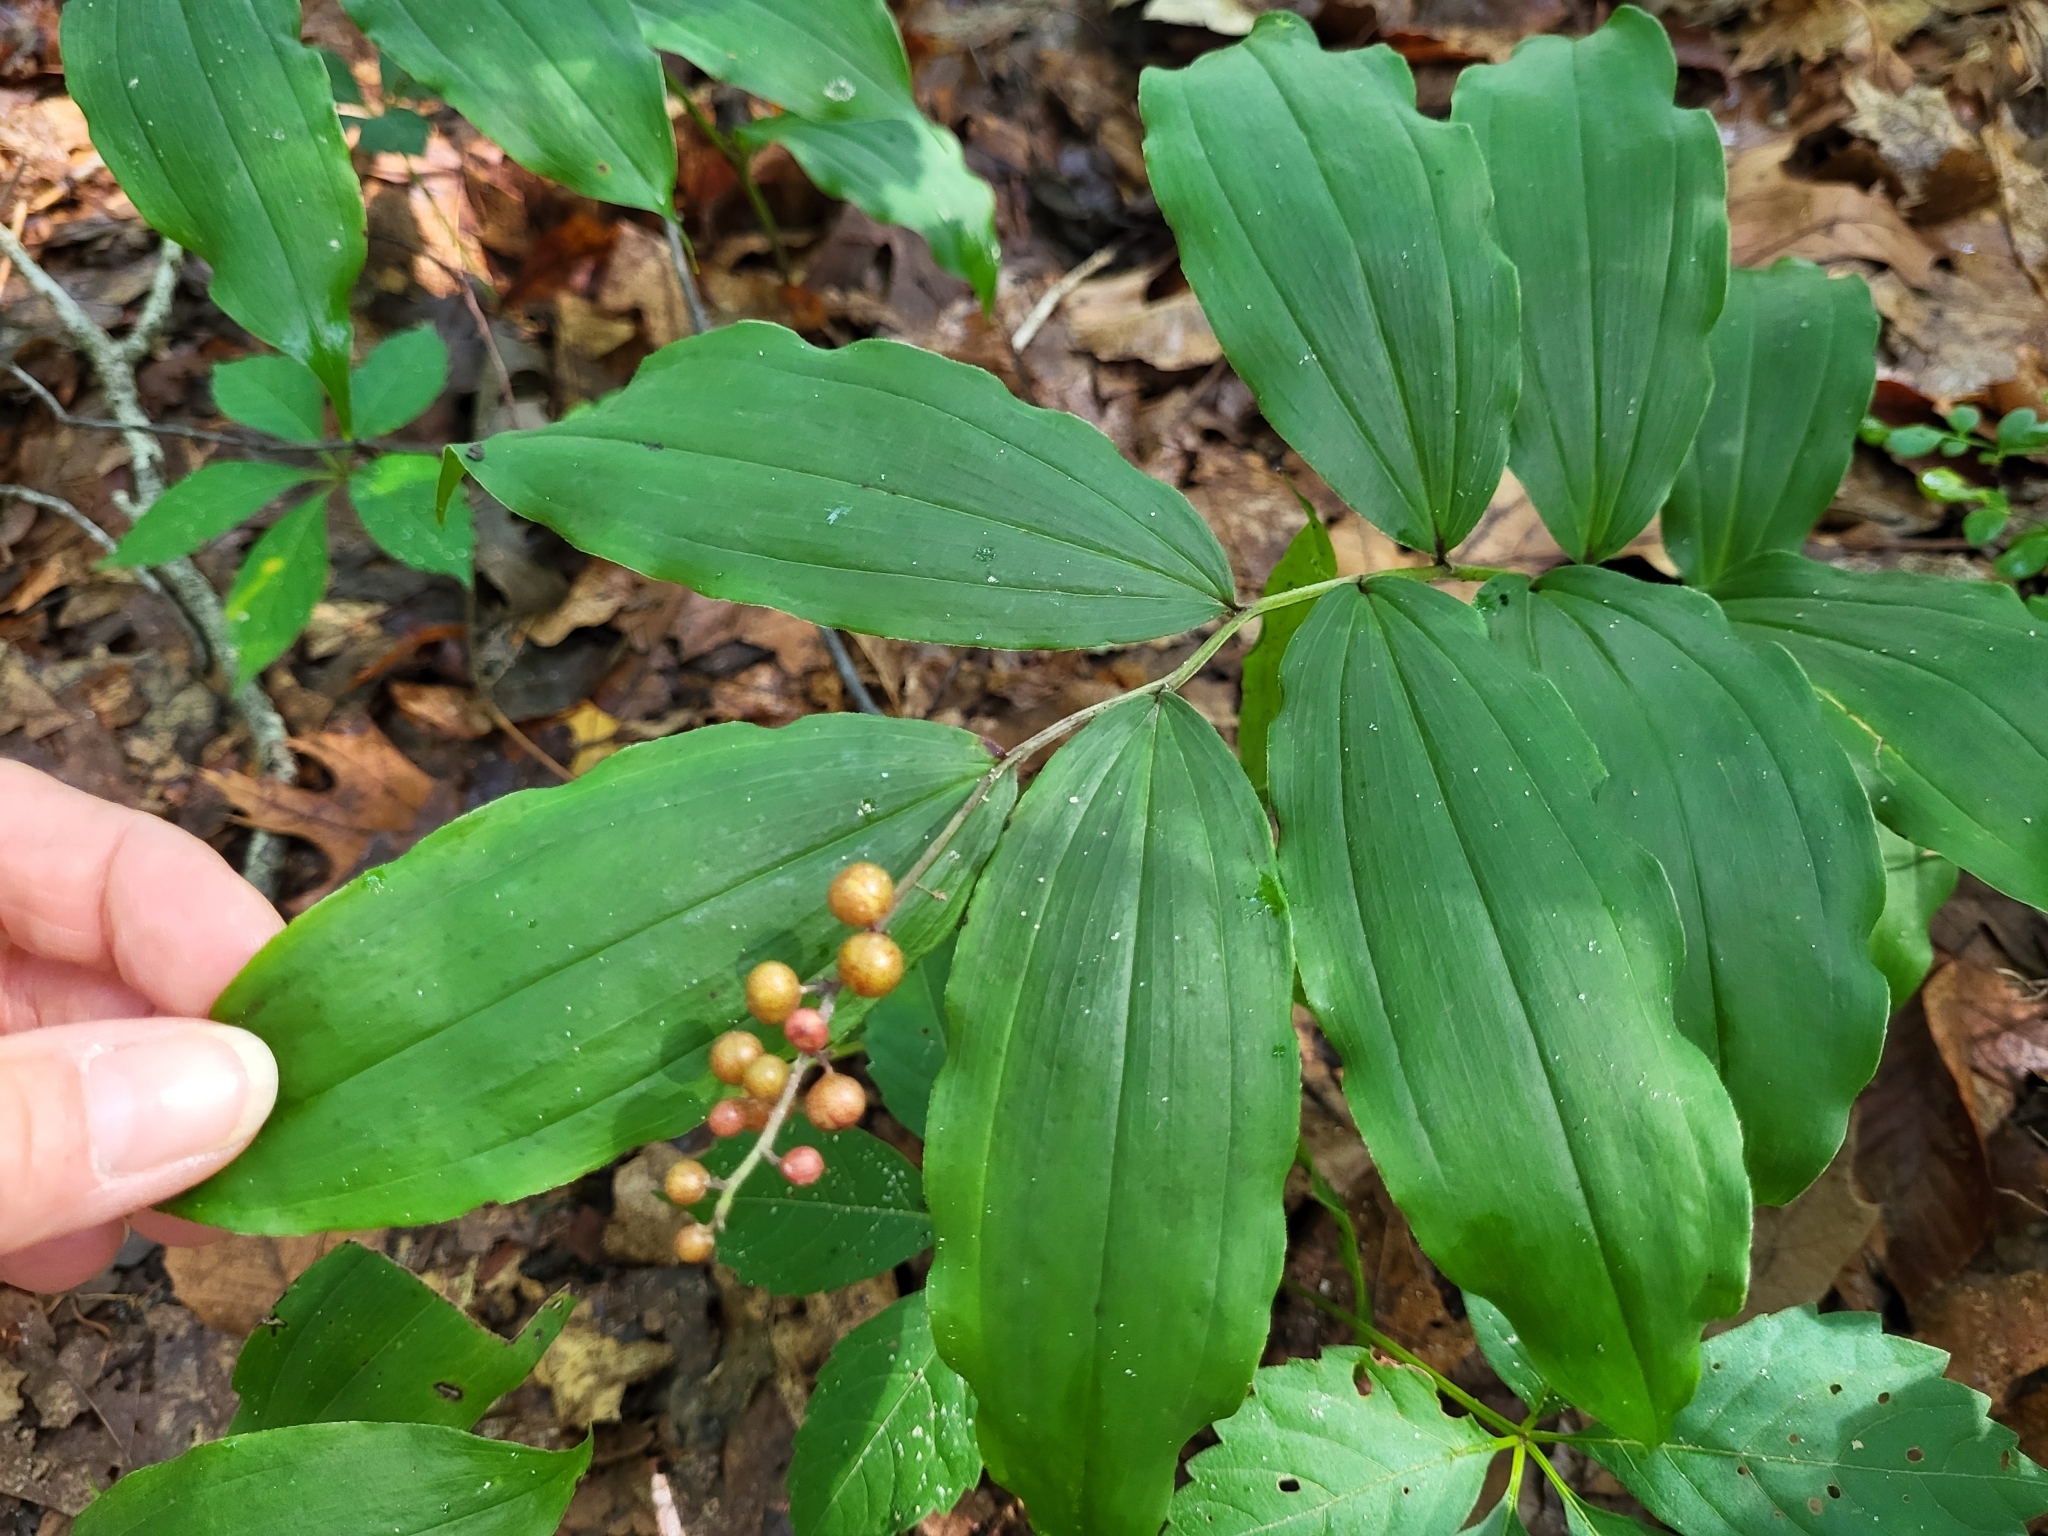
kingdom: Plantae
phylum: Tracheophyta
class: Liliopsida
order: Asparagales
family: Asparagaceae
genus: Maianthemum
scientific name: Maianthemum racemosum
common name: False spikenard
